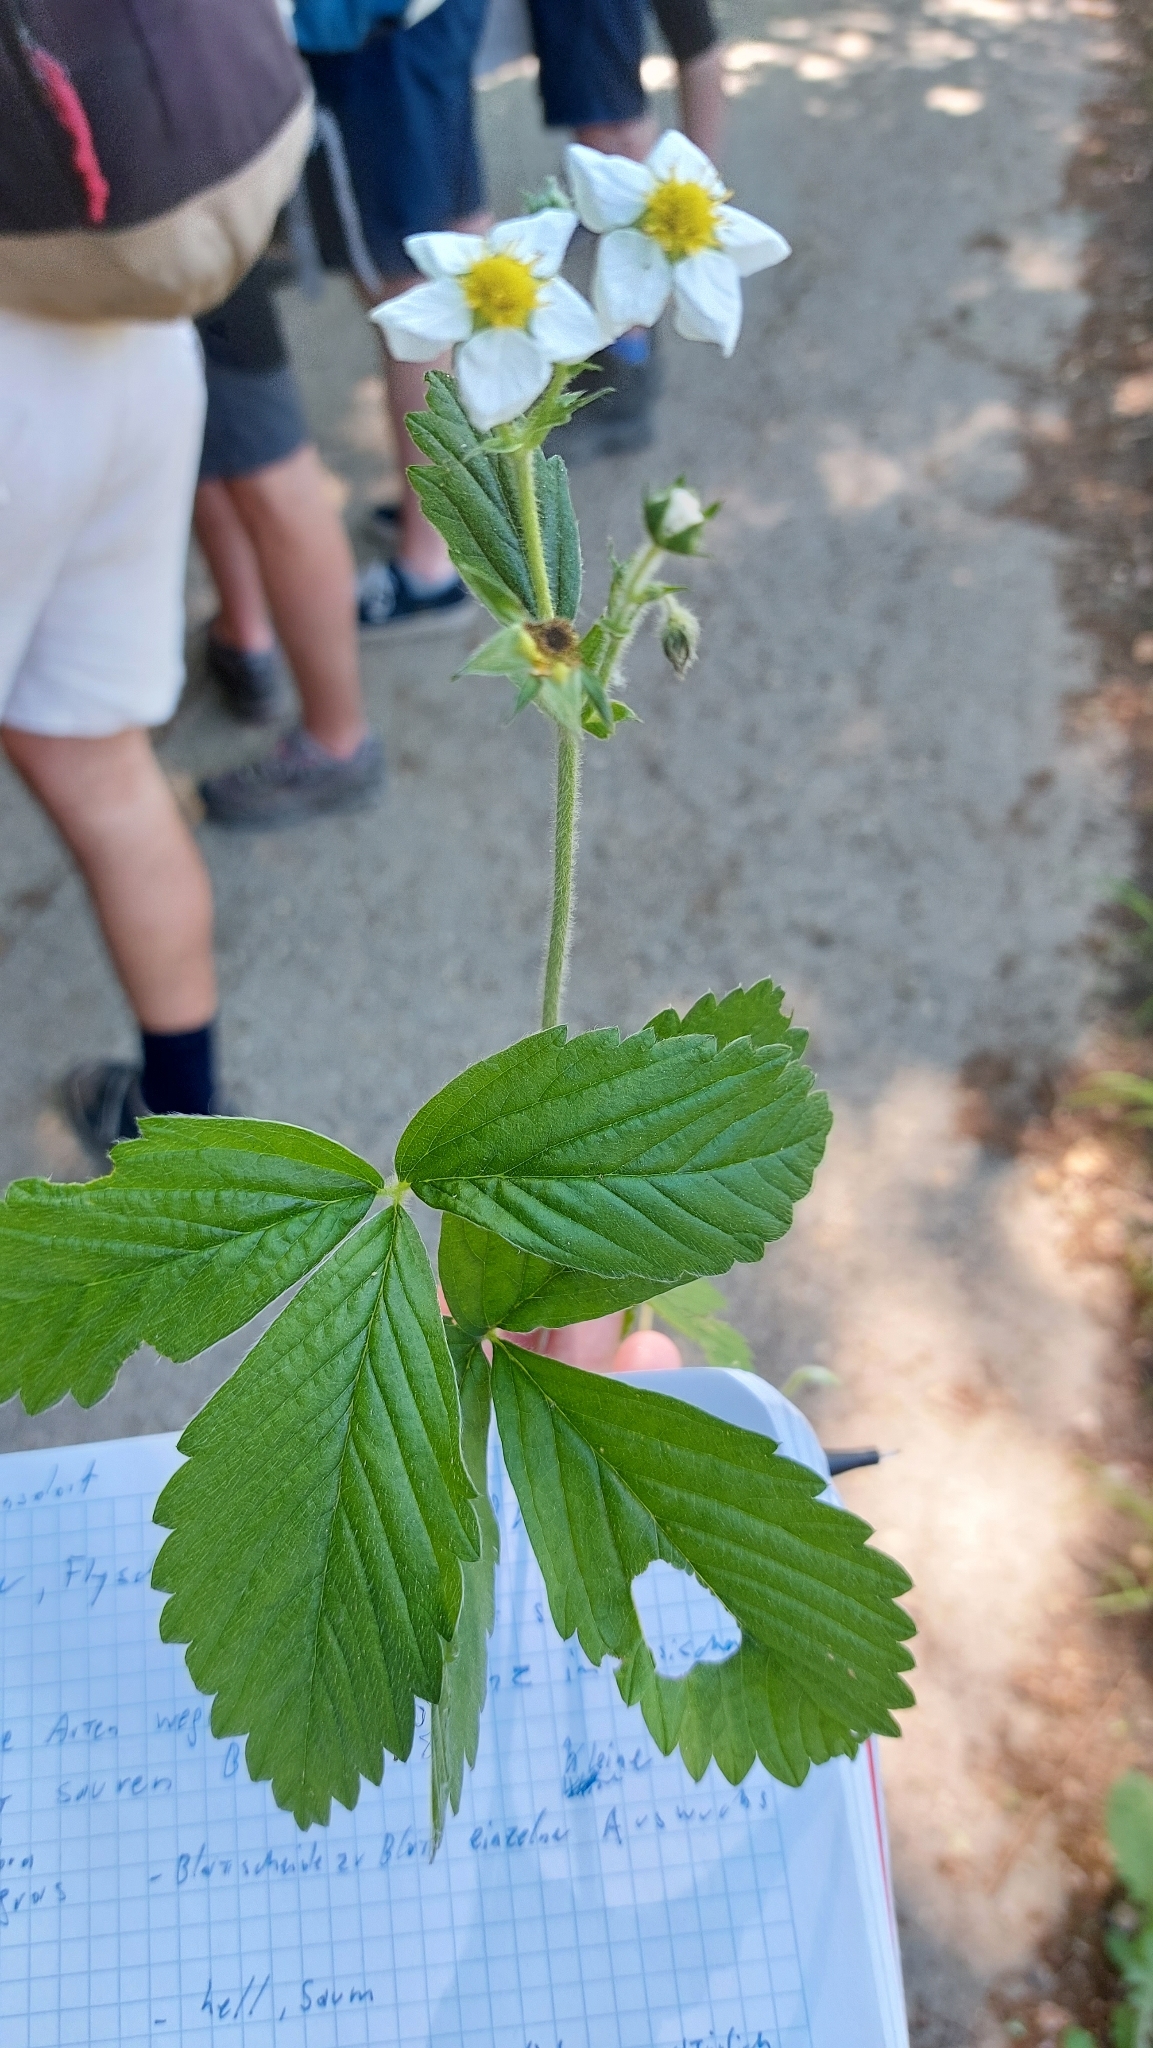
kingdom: Plantae
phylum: Tracheophyta
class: Magnoliopsida
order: Rosales
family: Rosaceae
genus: Fragaria
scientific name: Fragaria moschata
